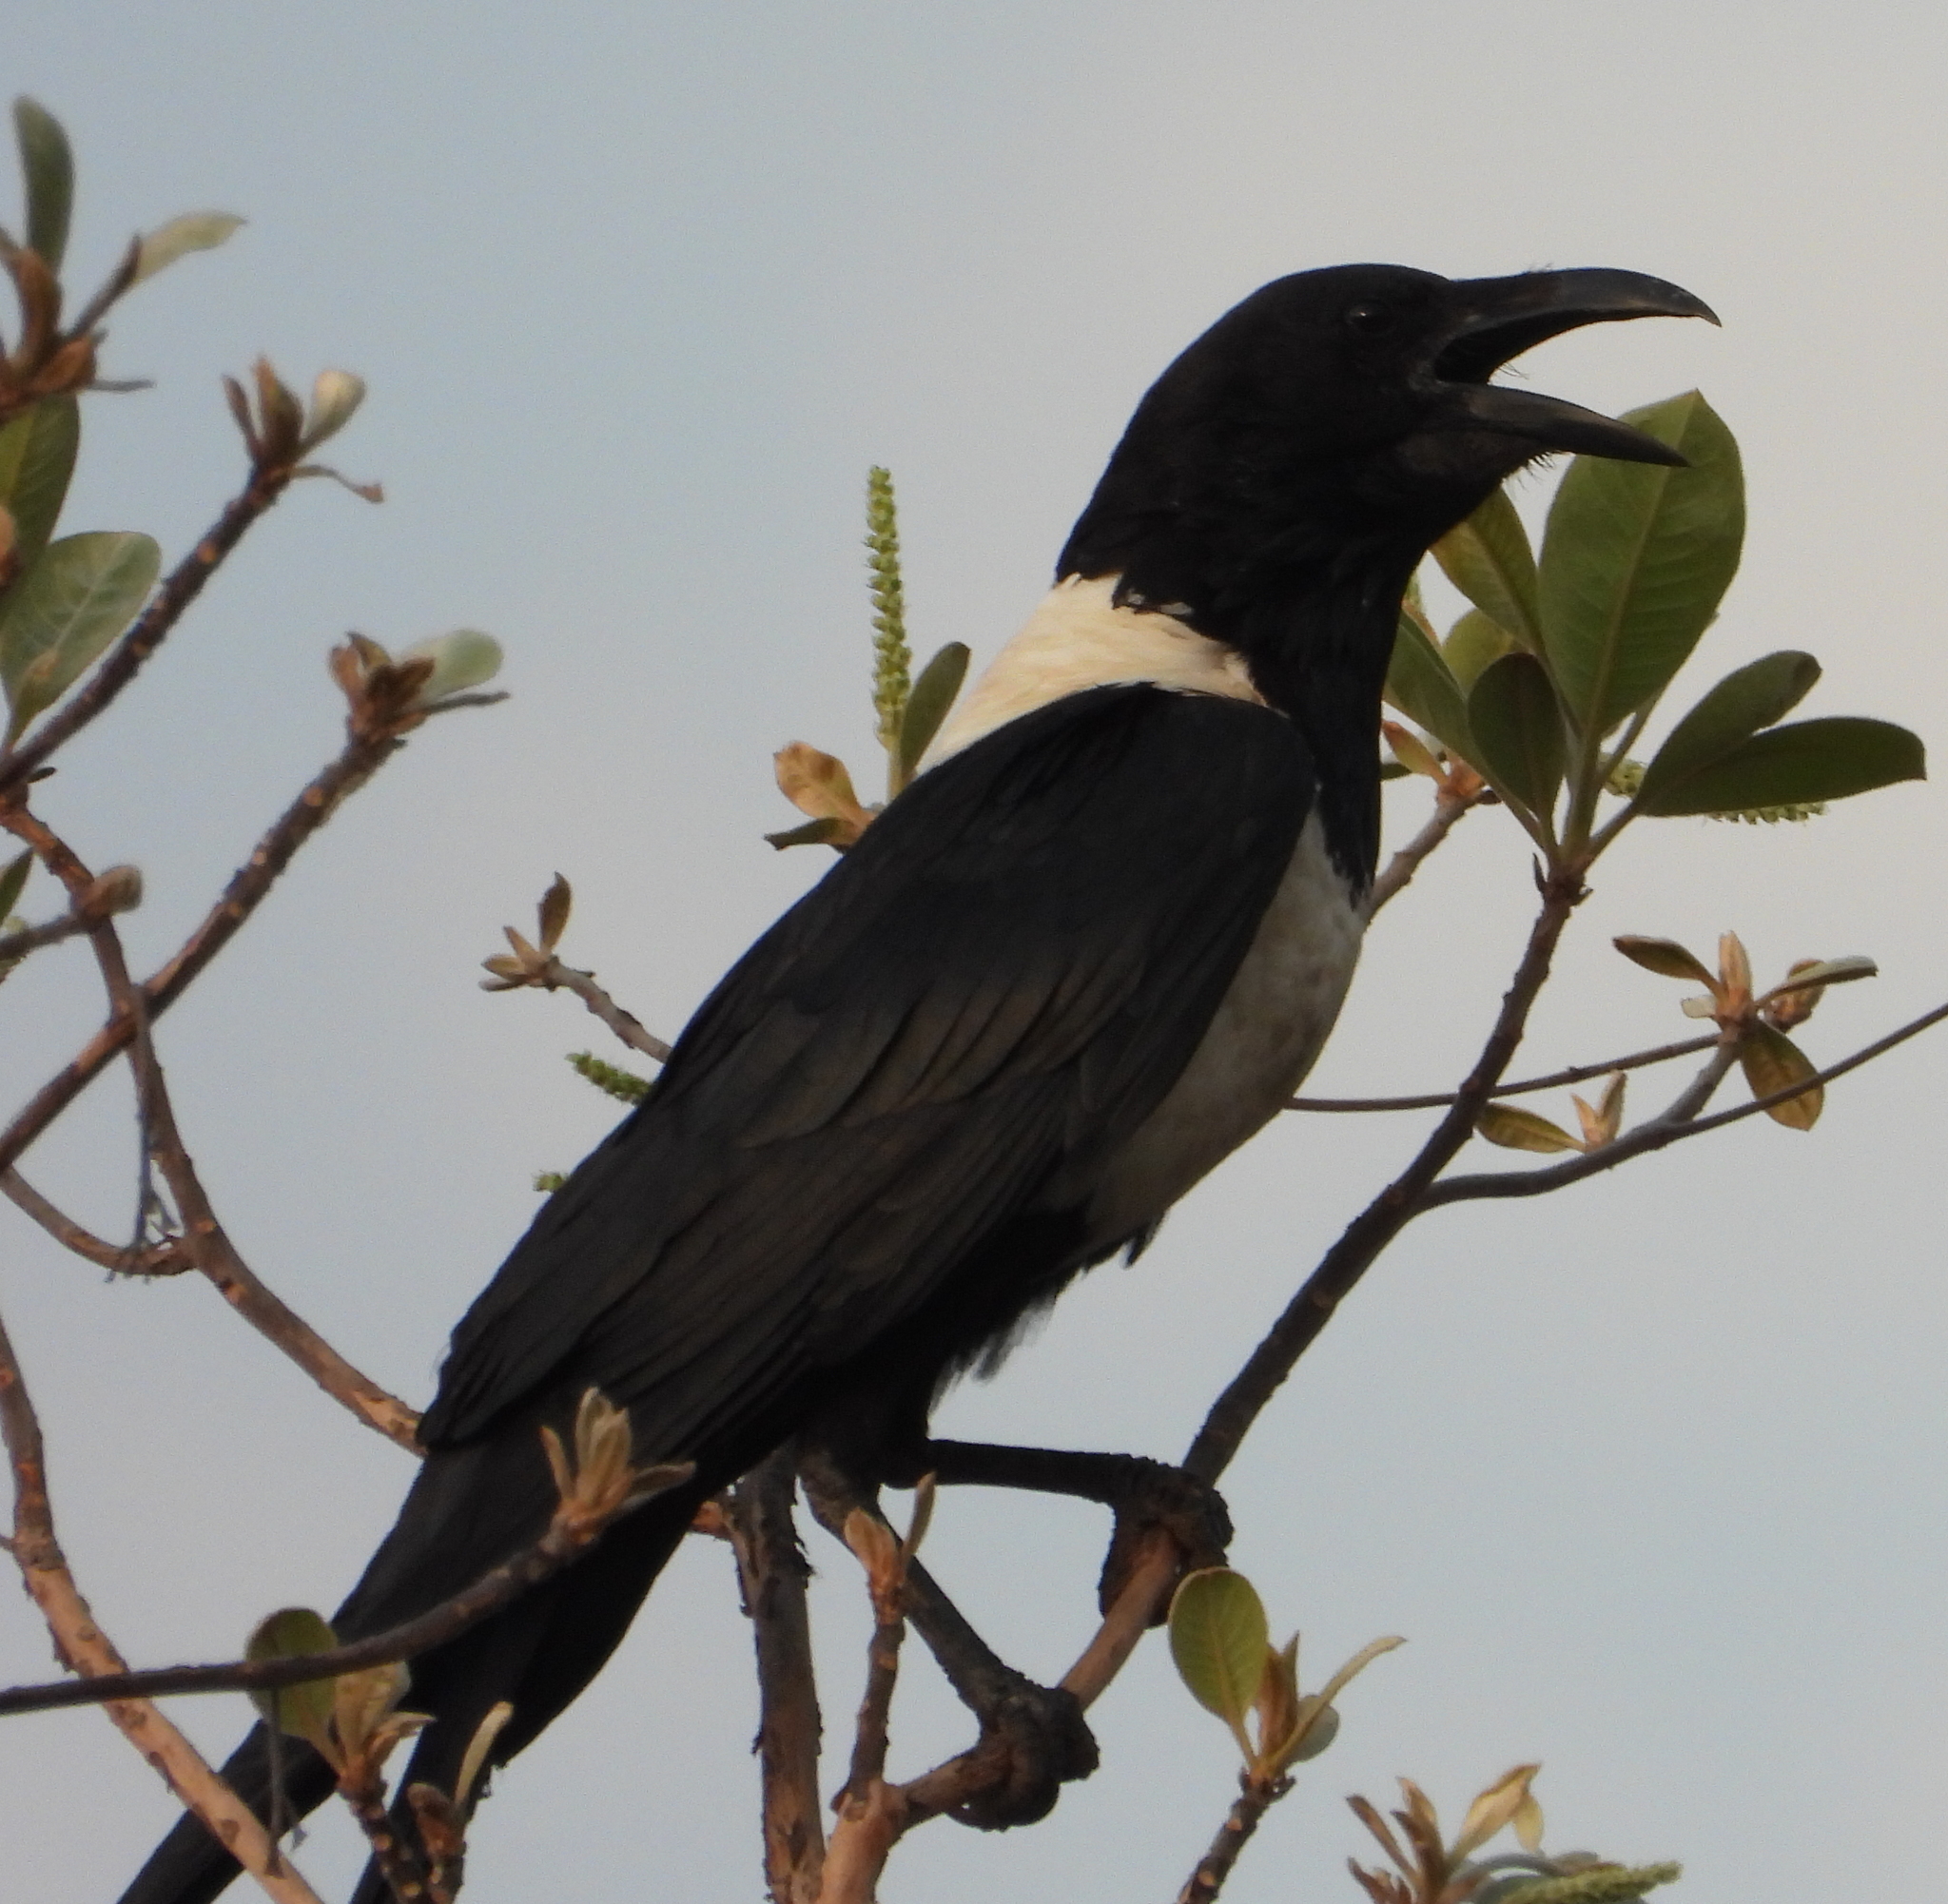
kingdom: Animalia
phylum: Chordata
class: Aves
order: Passeriformes
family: Corvidae
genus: Corvus
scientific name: Corvus albus
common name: Pied crow
